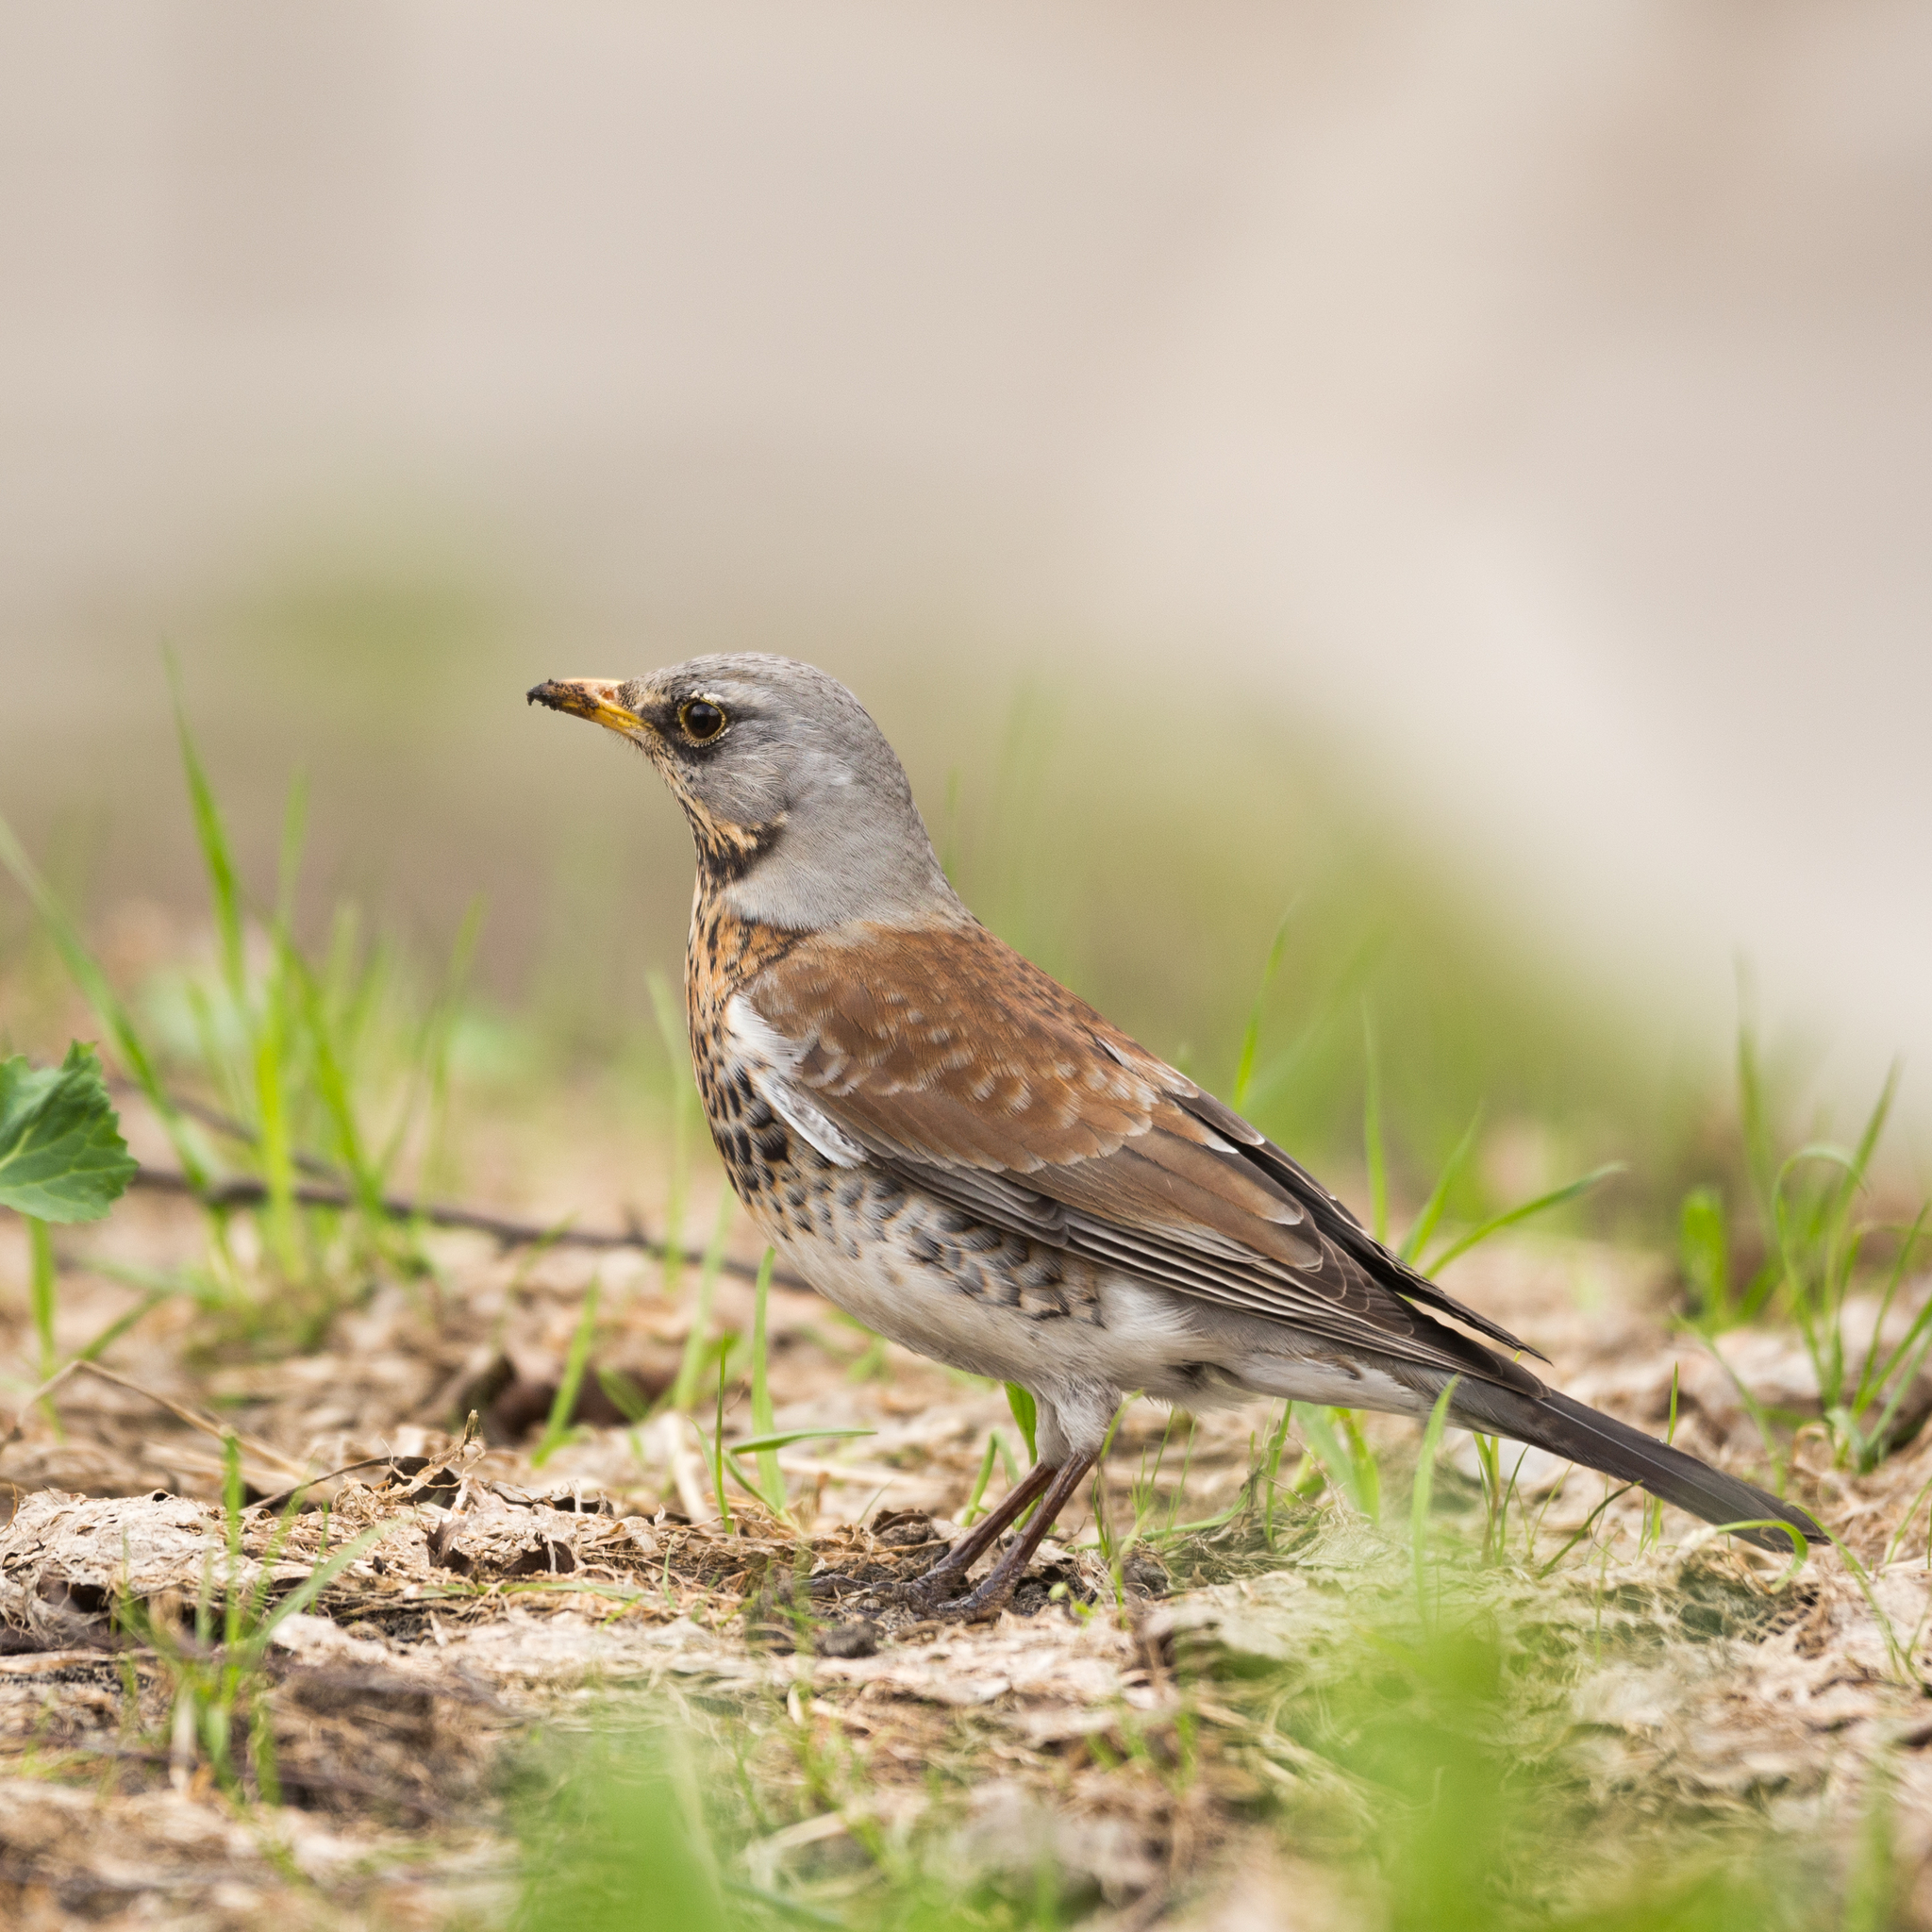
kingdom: Animalia
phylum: Chordata
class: Aves
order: Passeriformes
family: Turdidae
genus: Turdus
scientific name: Turdus pilaris
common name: Fieldfare
